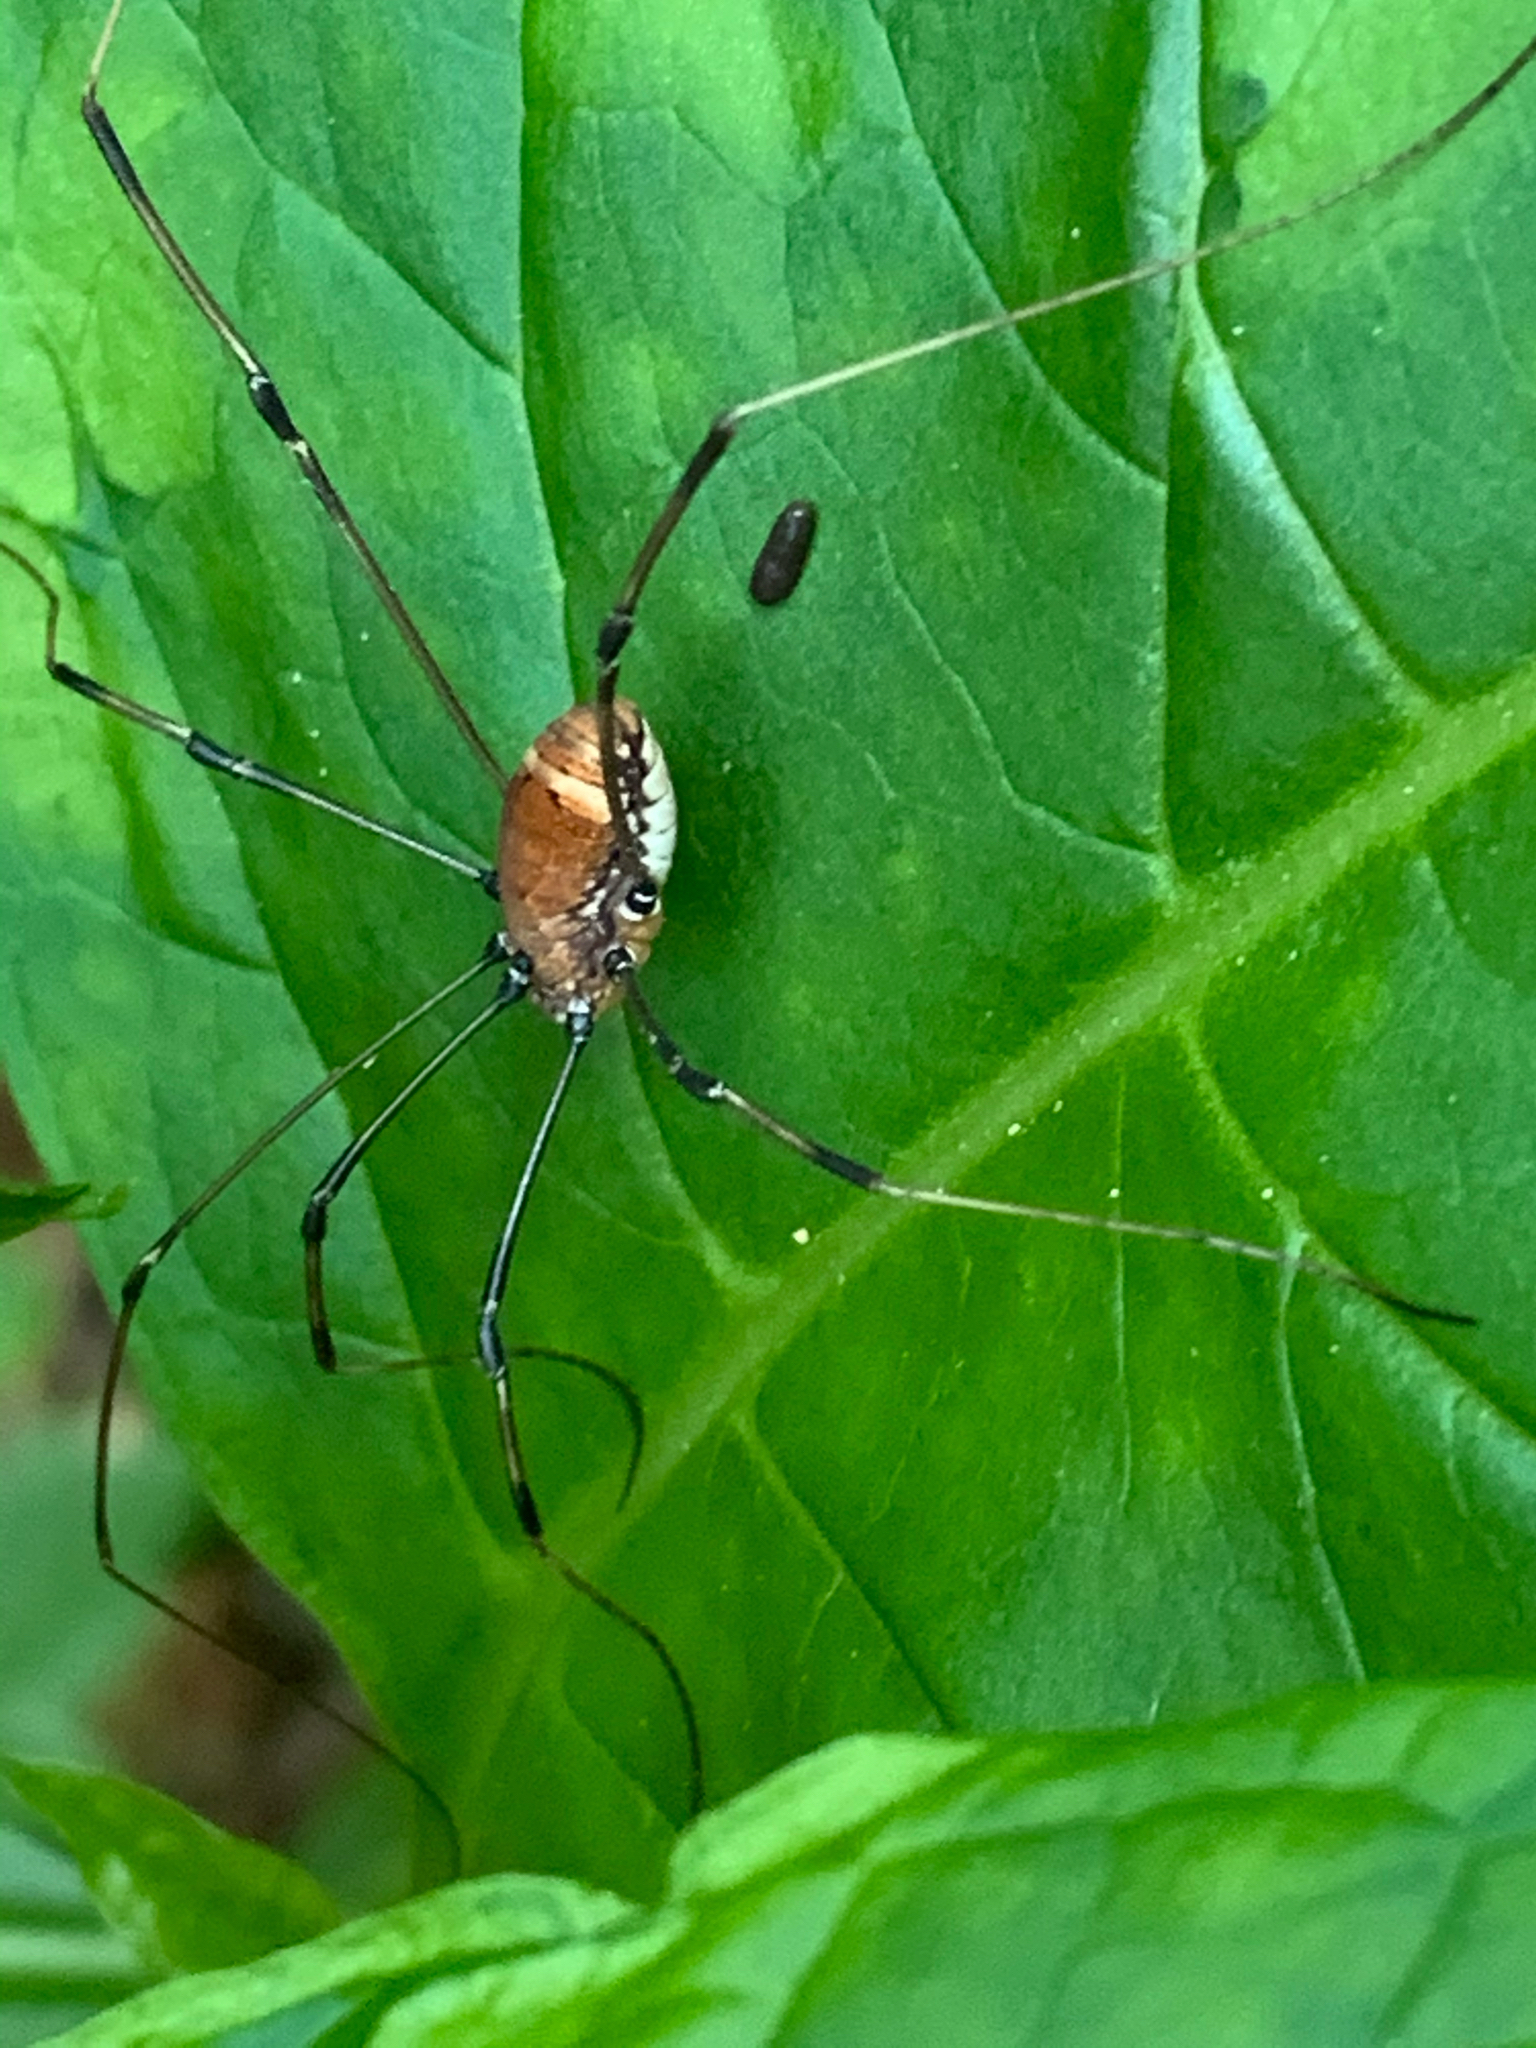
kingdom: Animalia
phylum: Arthropoda
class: Arachnida
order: Opiliones
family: Sclerosomatidae
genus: Leiobunum
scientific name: Leiobunum verrucosum
